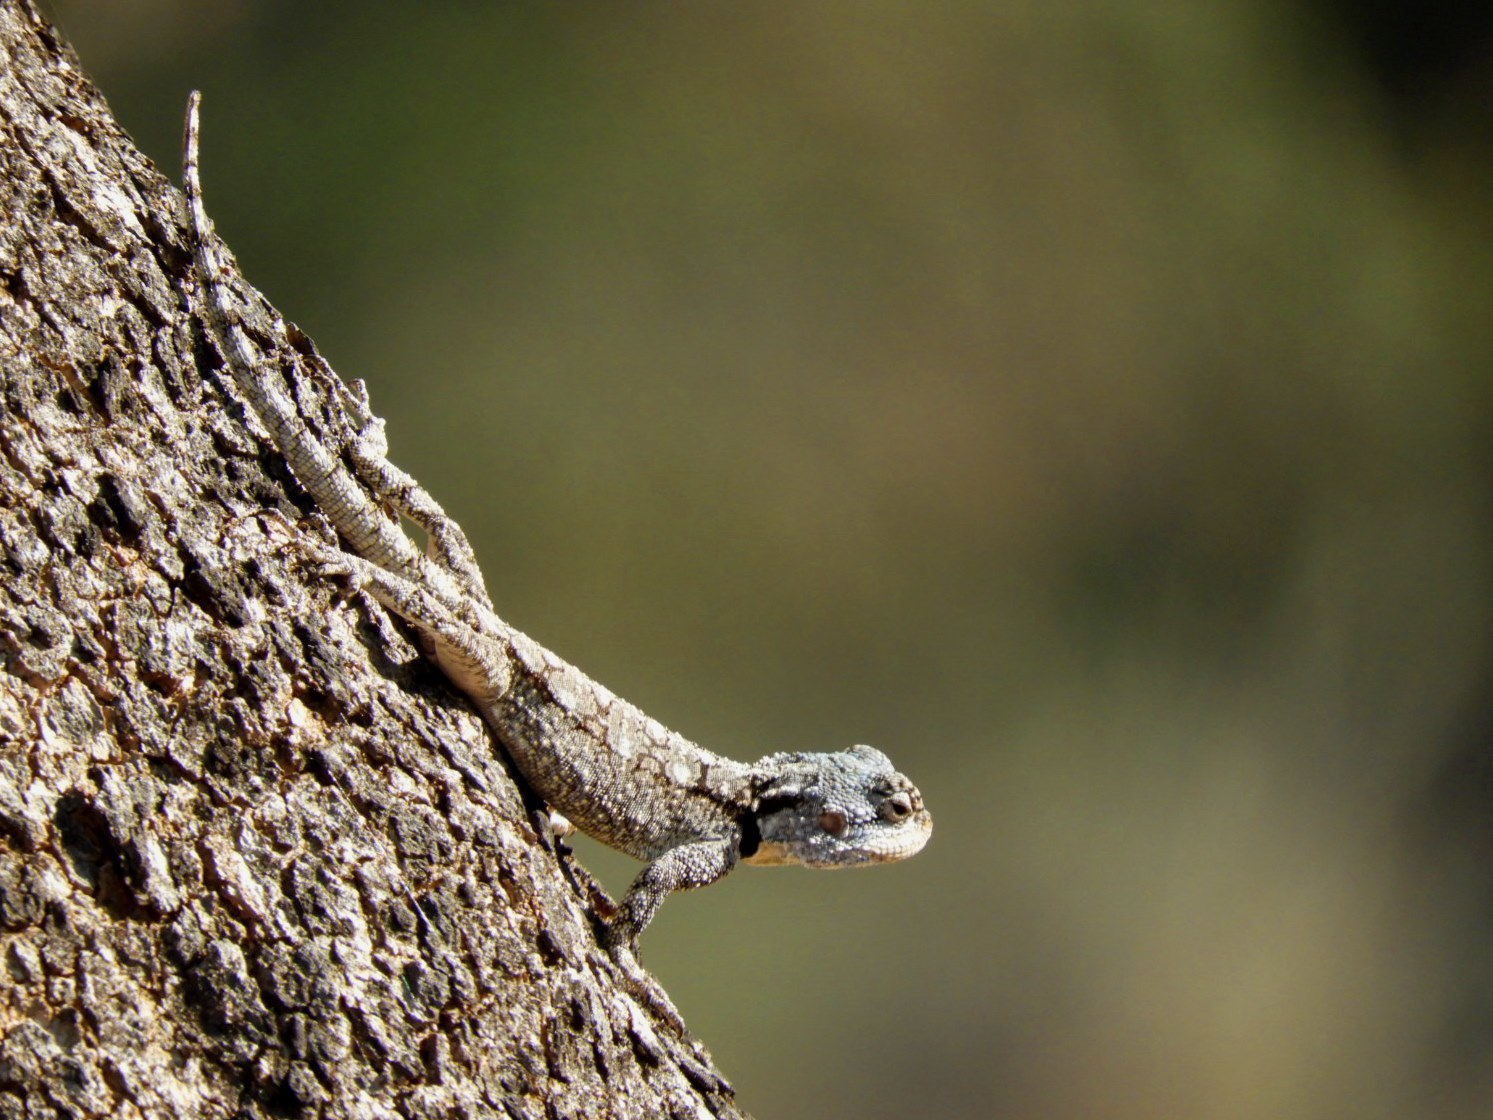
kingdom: Animalia
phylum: Chordata
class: Squamata
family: Agamidae
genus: Acanthocercus
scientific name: Acanthocercus atricollis
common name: Southern tree agama
